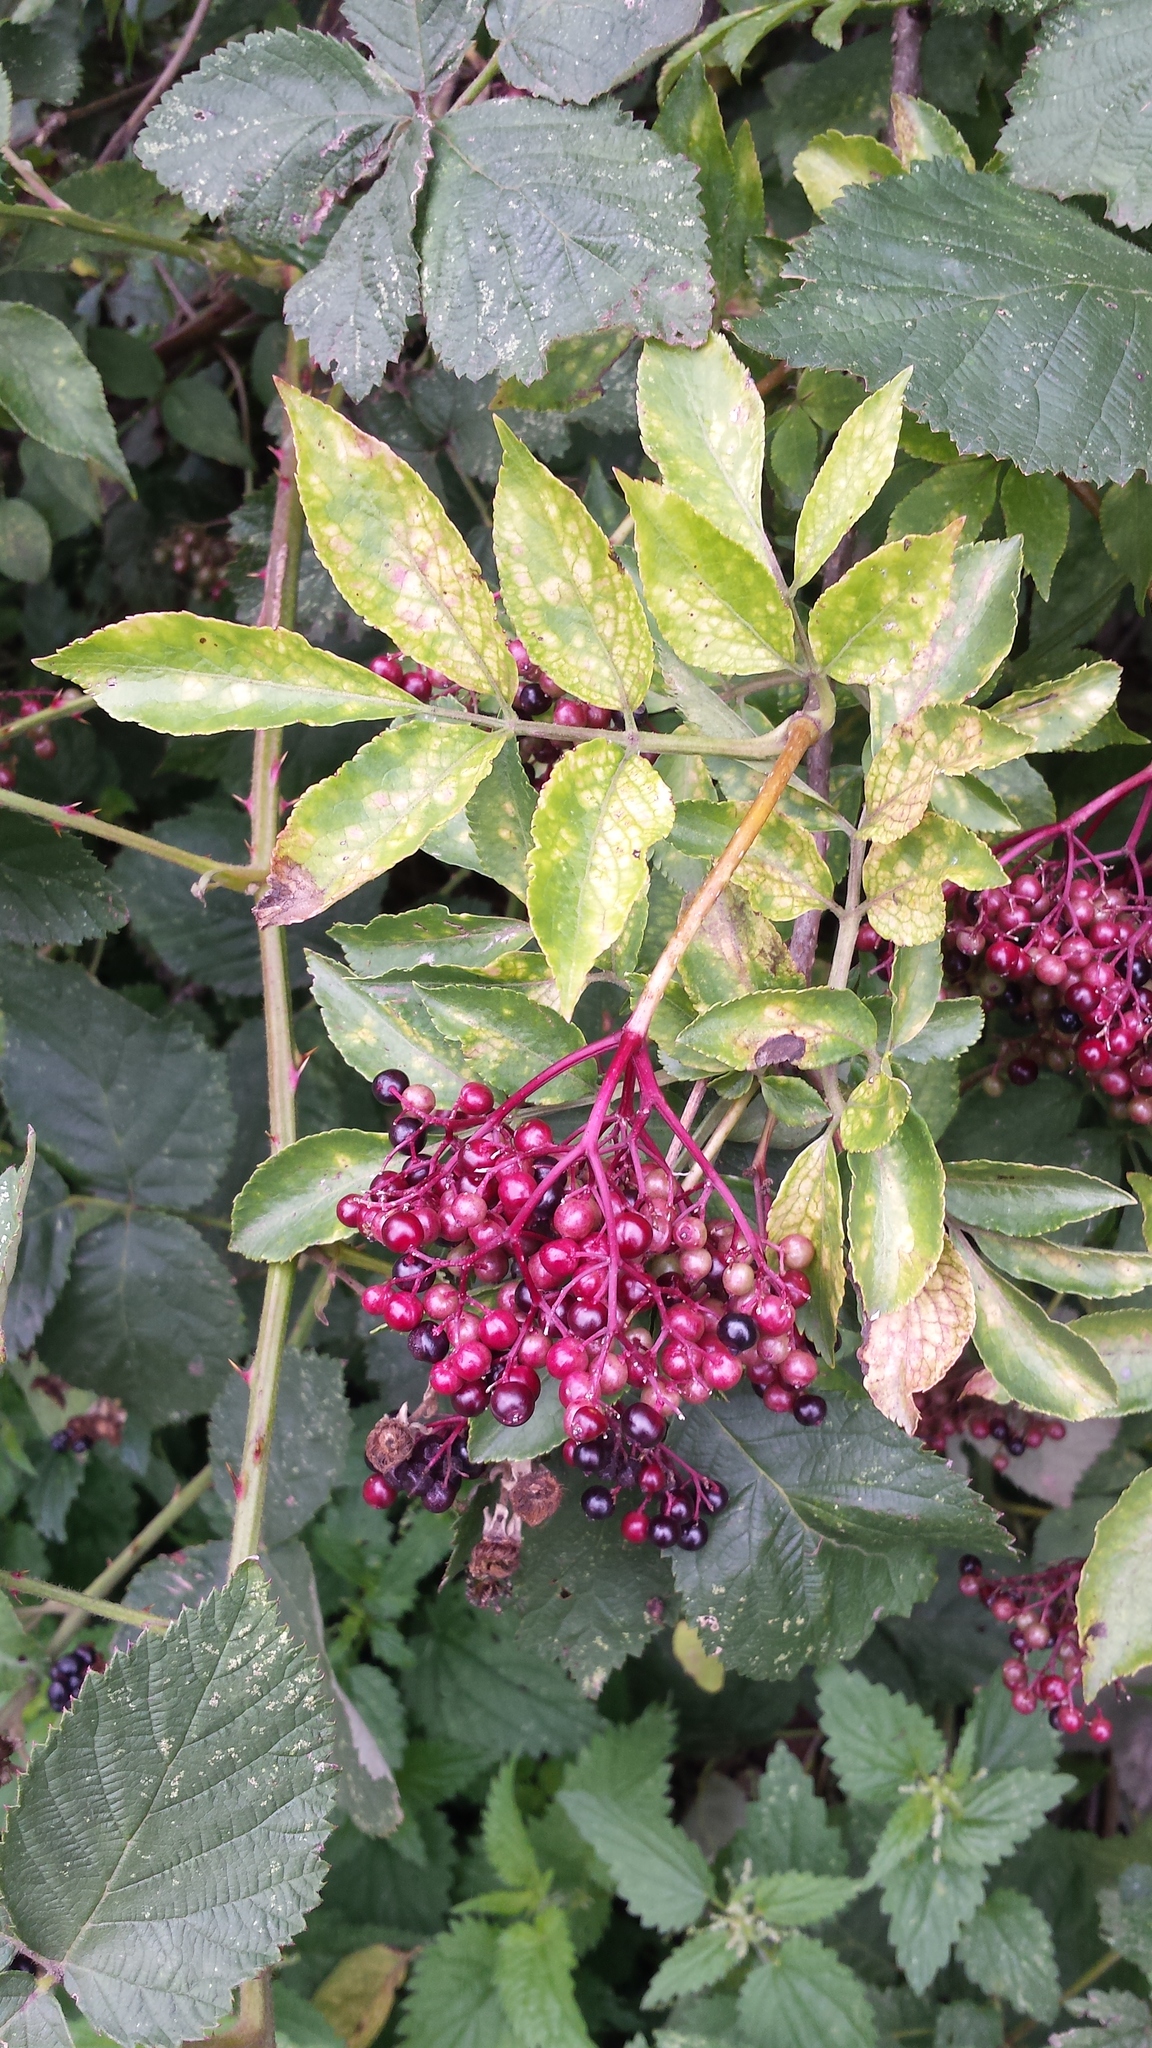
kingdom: Plantae
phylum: Tracheophyta
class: Magnoliopsida
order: Dipsacales
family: Viburnaceae
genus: Sambucus
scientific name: Sambucus nigra
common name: Elder
